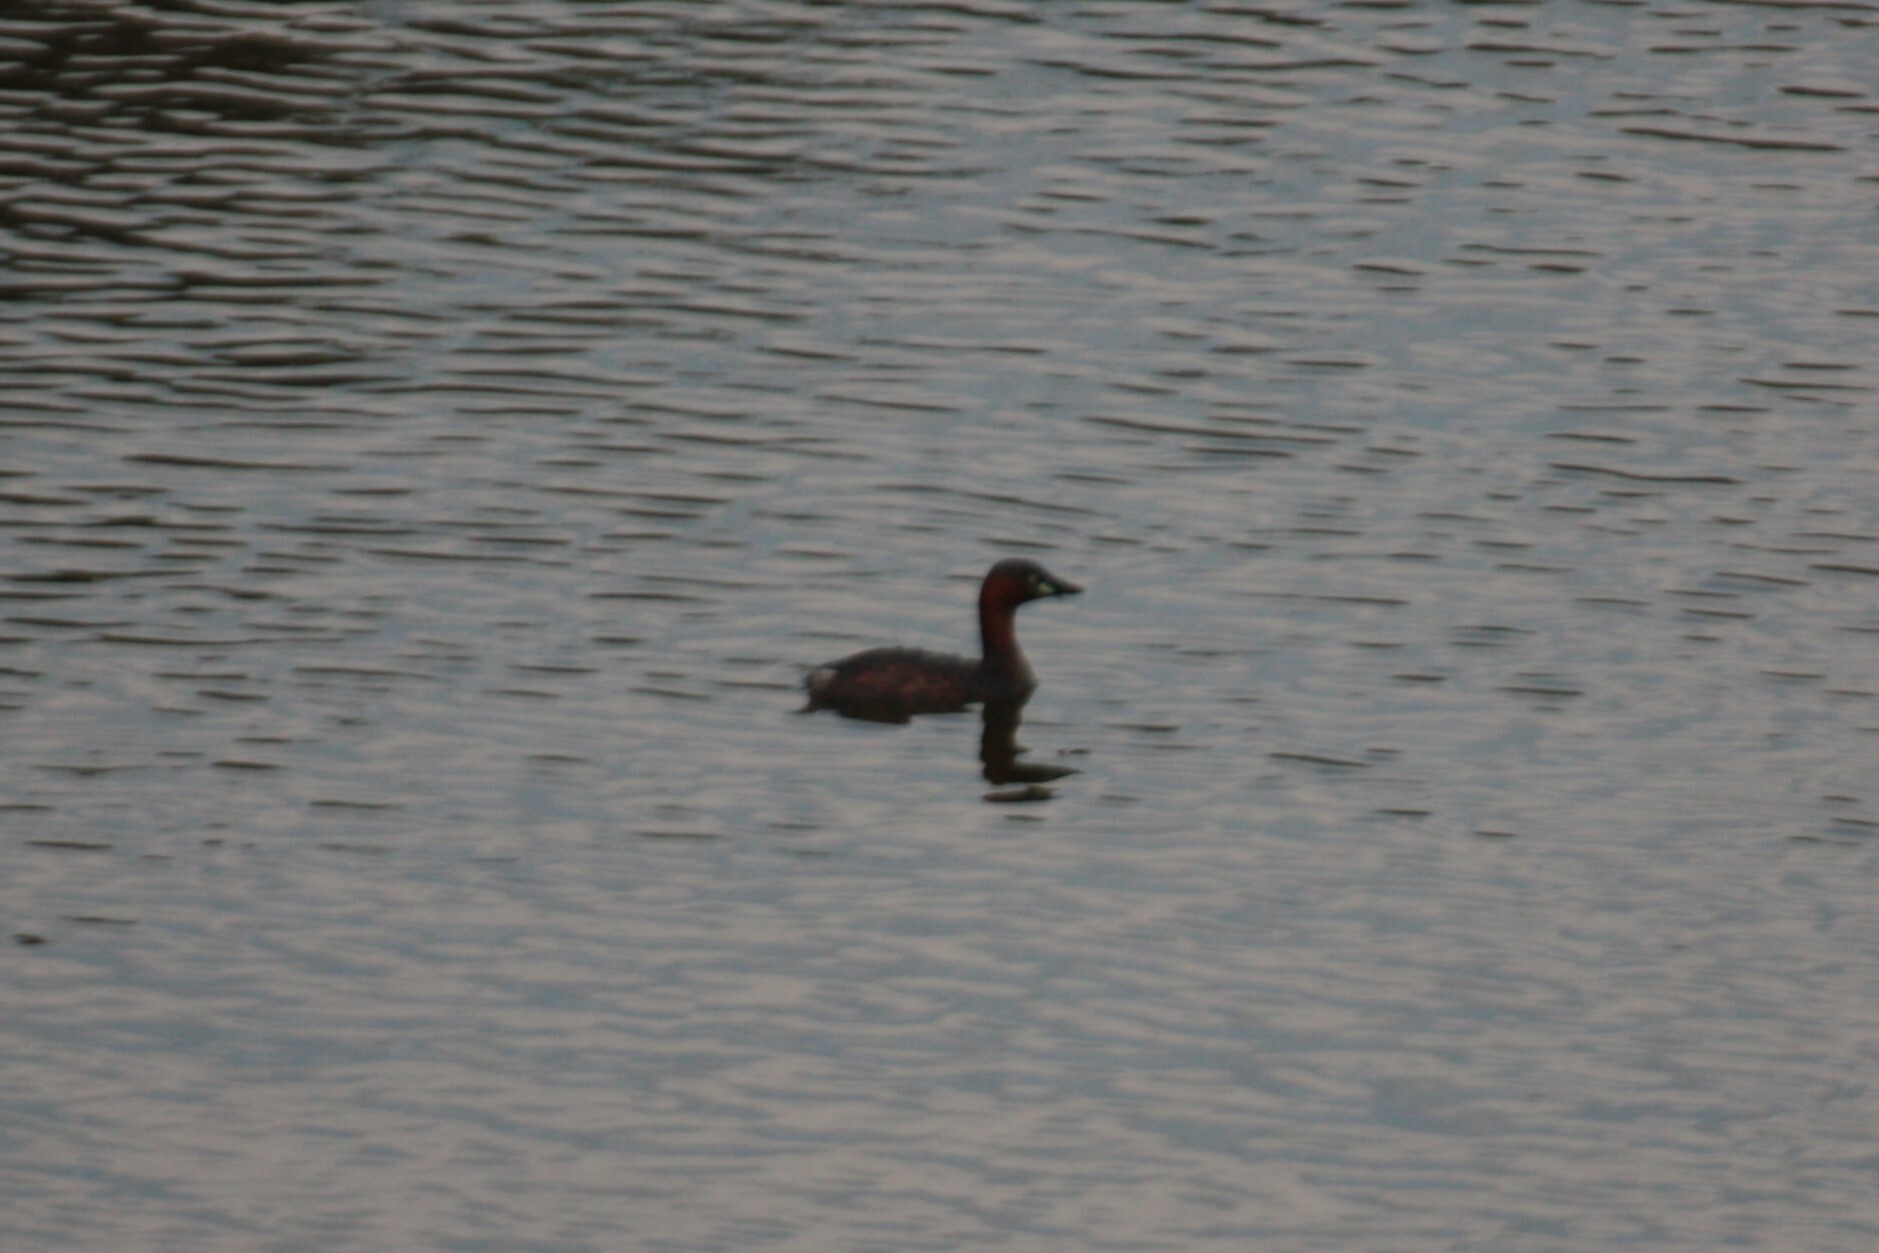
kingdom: Animalia
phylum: Chordata
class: Aves
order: Podicipediformes
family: Podicipedidae
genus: Tachybaptus
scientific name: Tachybaptus ruficollis
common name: Little grebe
